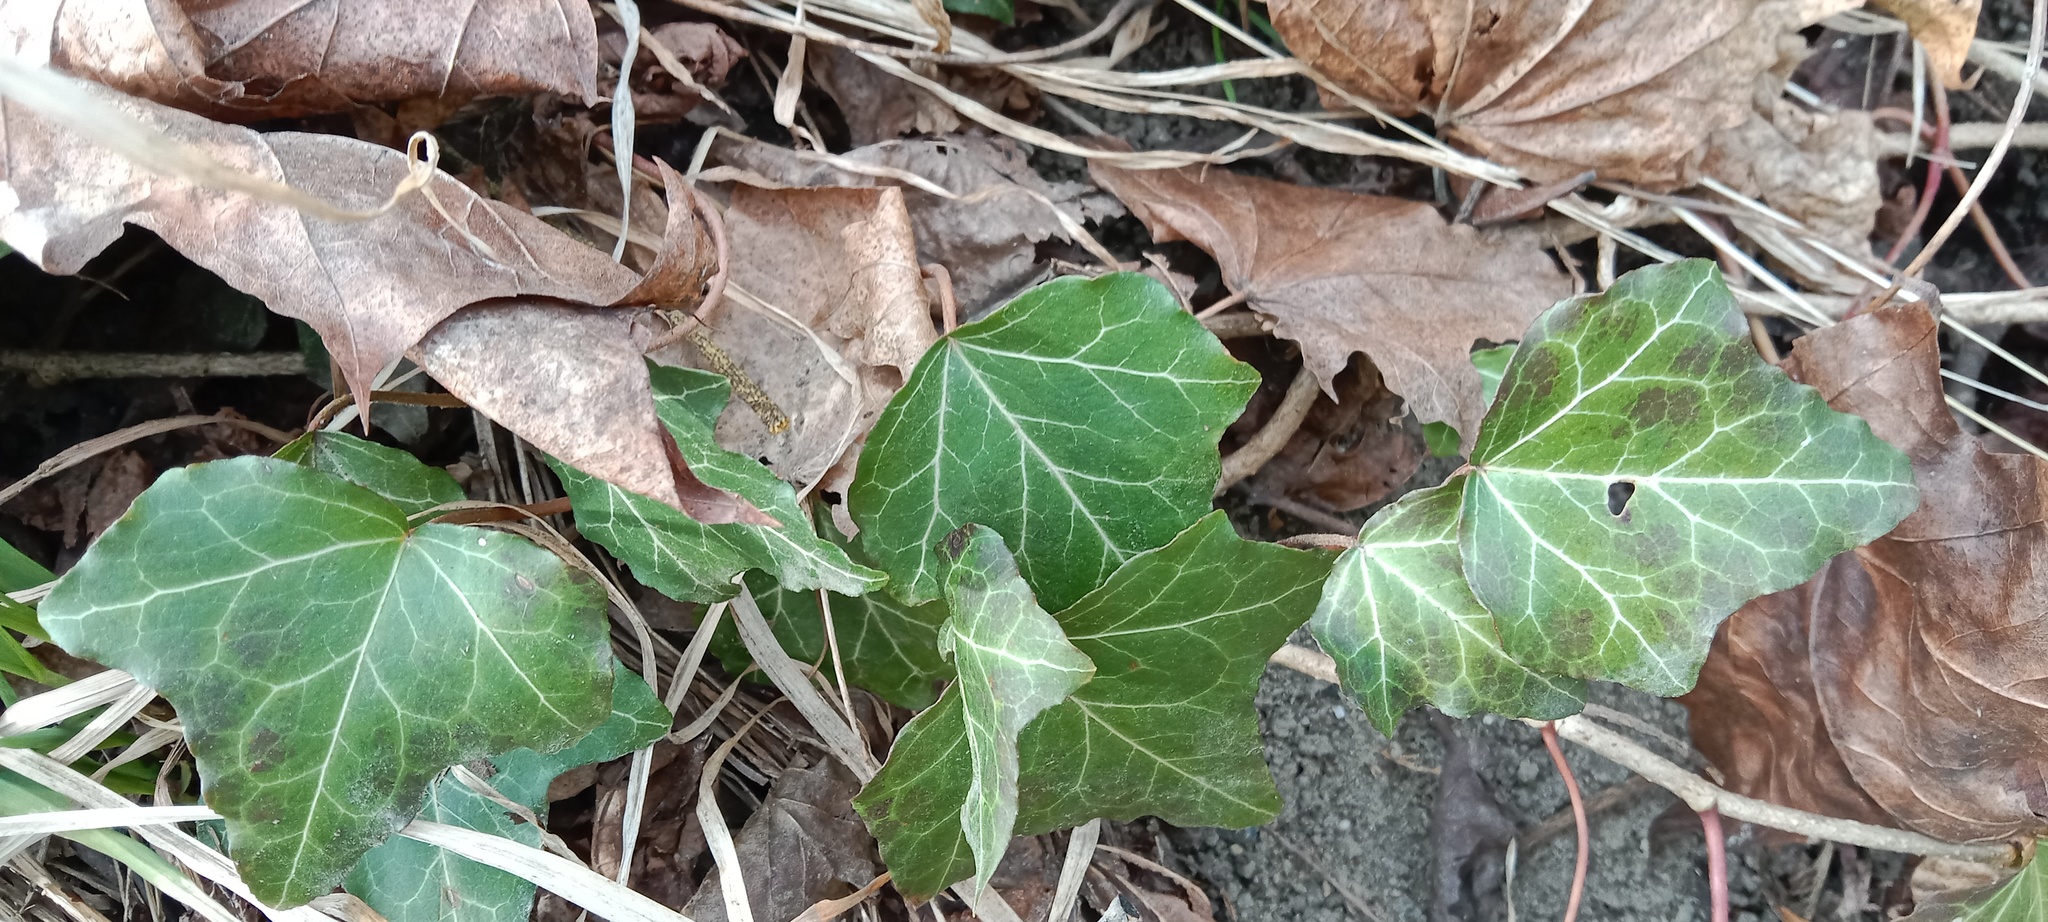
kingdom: Plantae
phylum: Tracheophyta
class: Magnoliopsida
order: Apiales
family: Araliaceae
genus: Hedera
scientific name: Hedera helix
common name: Ivy
